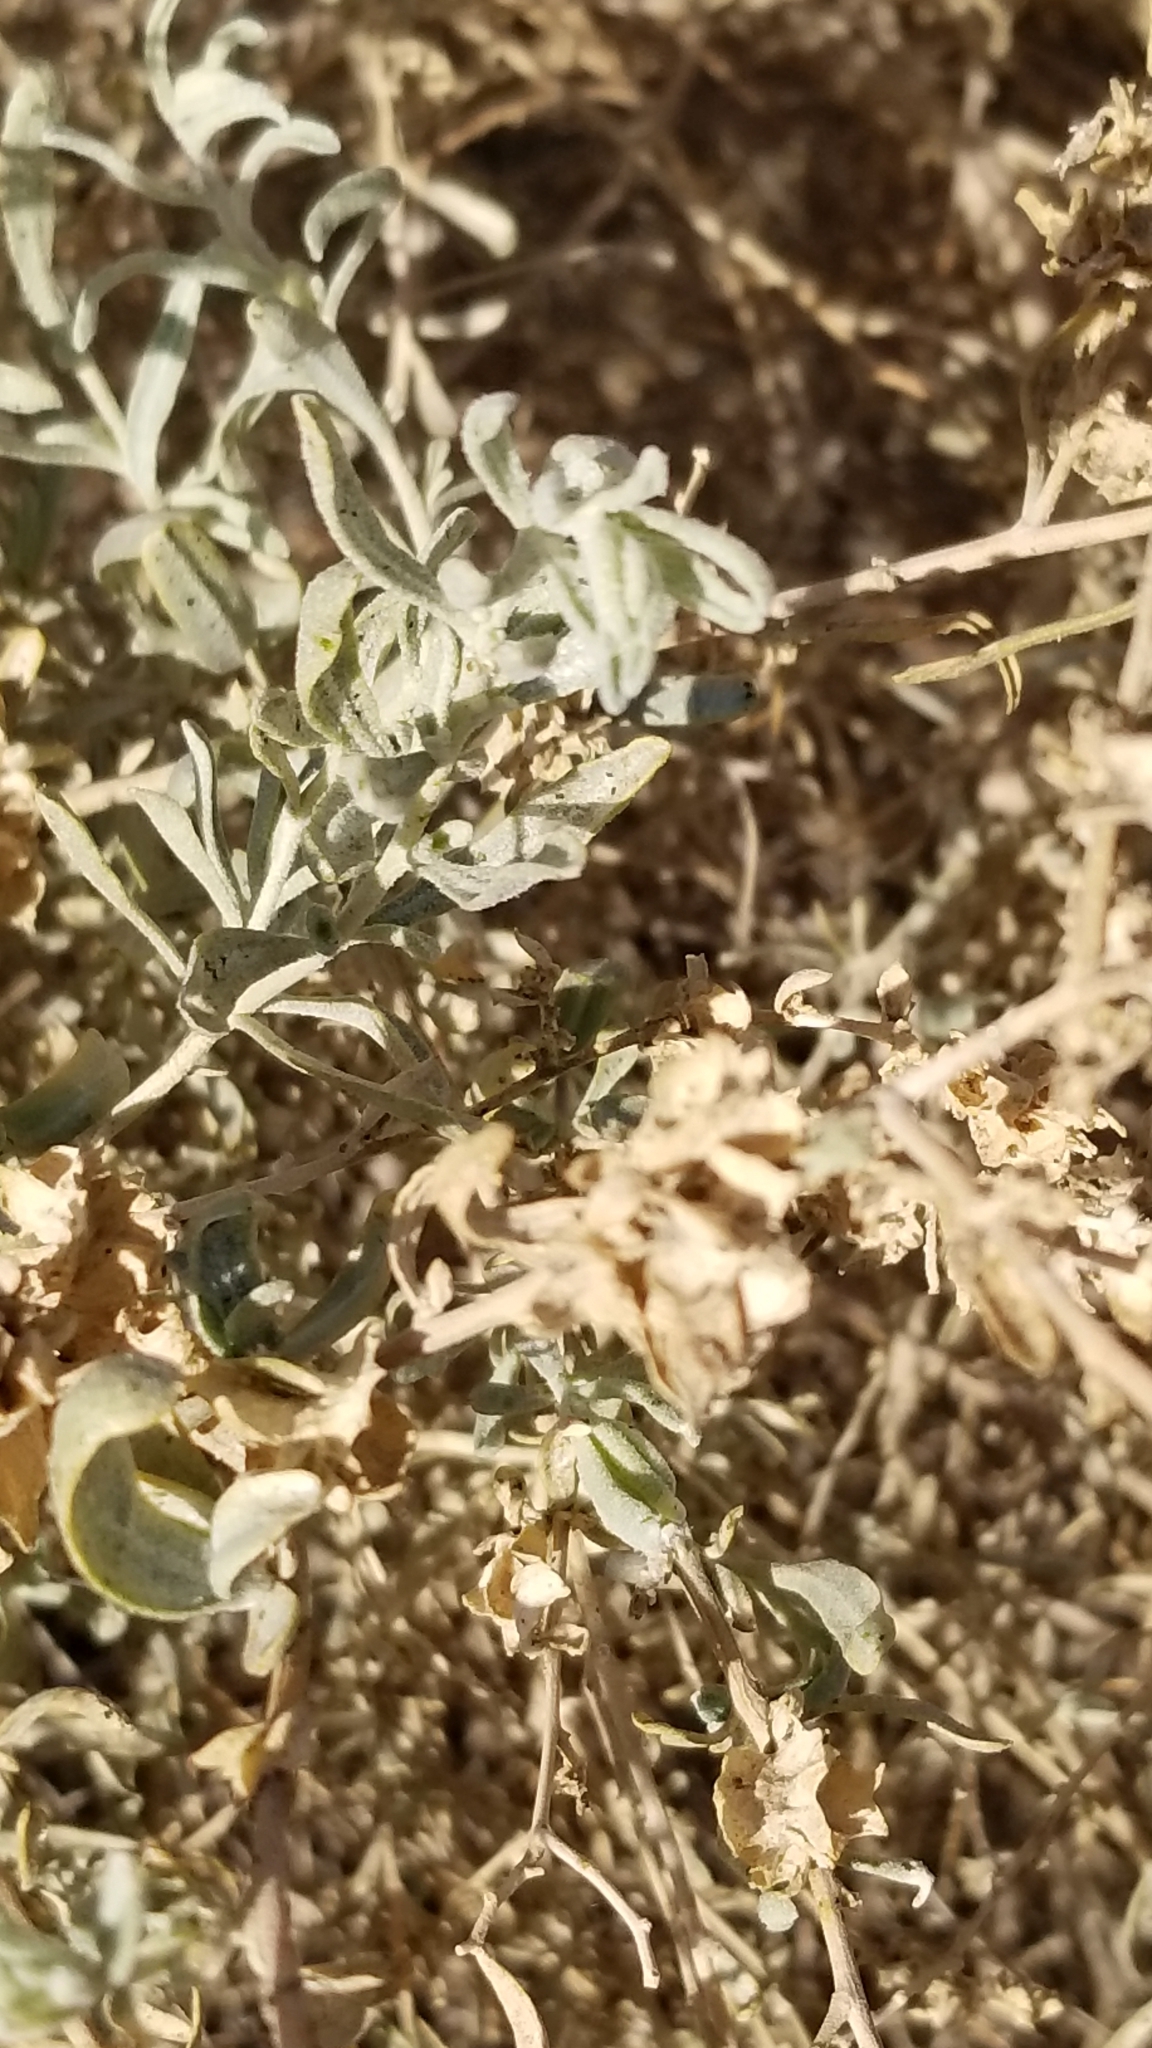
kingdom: Plantae
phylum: Tracheophyta
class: Magnoliopsida
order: Caryophyllales
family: Amaranthaceae
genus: Atriplex
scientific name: Atriplex canescens
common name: Four-wing saltbush
